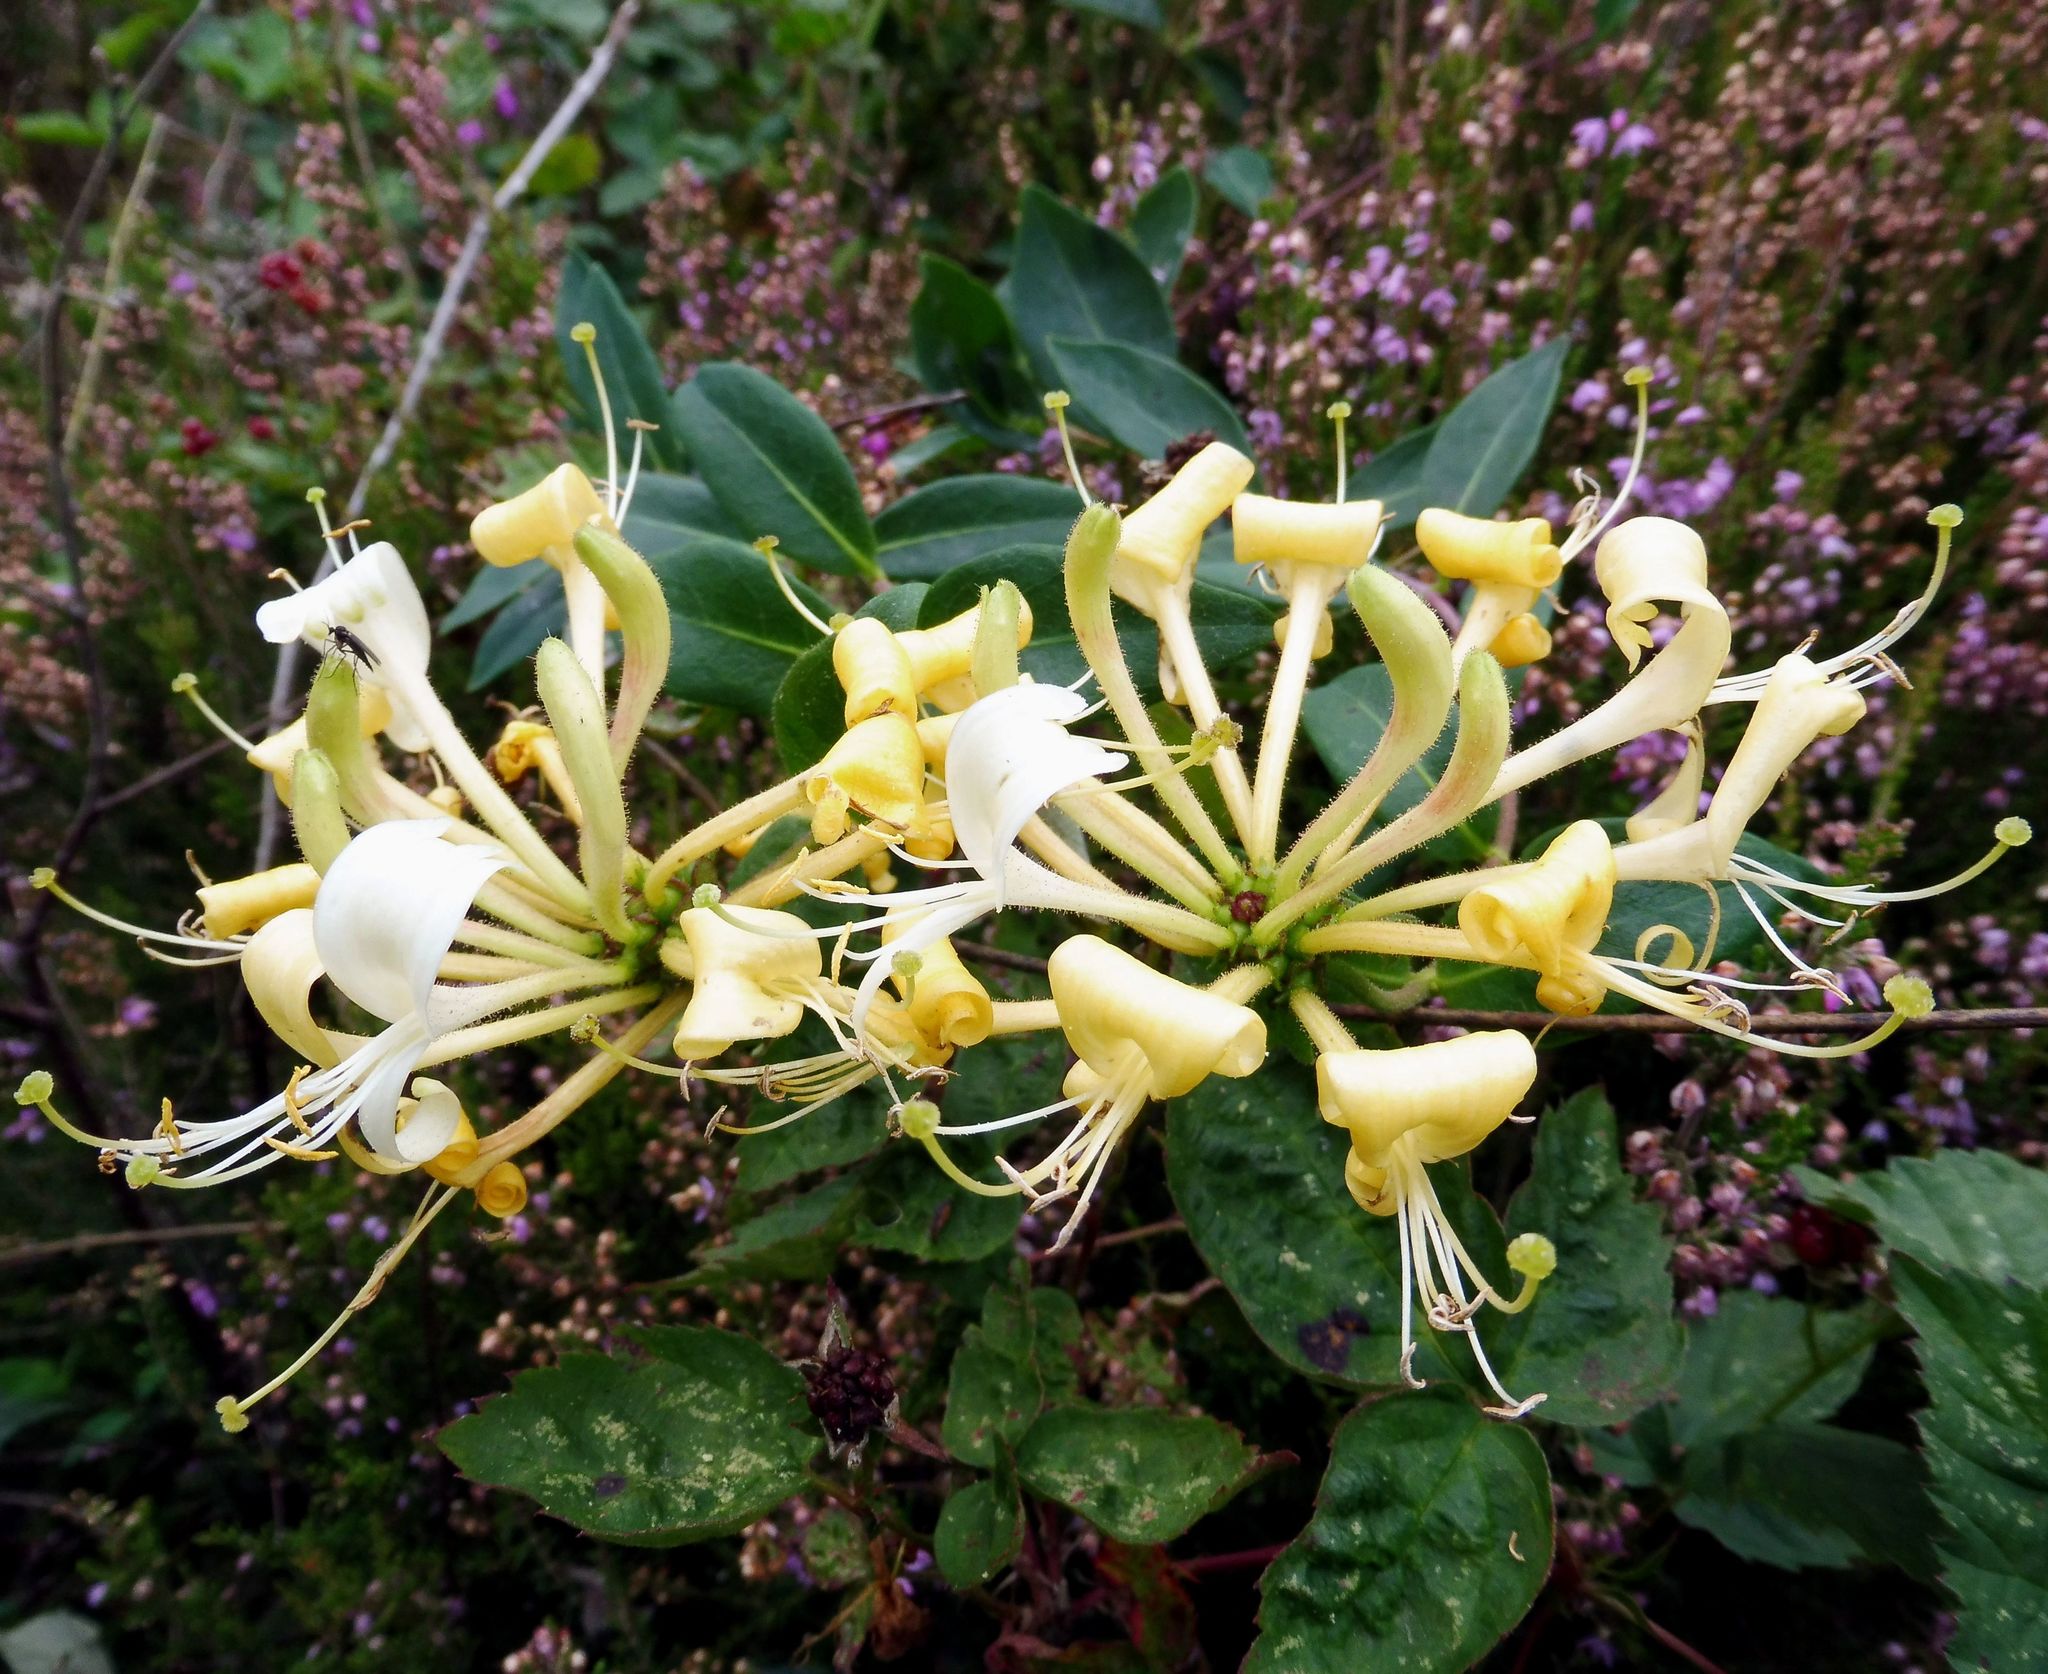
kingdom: Plantae
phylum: Tracheophyta
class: Magnoliopsida
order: Dipsacales
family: Caprifoliaceae
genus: Lonicera
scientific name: Lonicera periclymenum
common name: European honeysuckle
